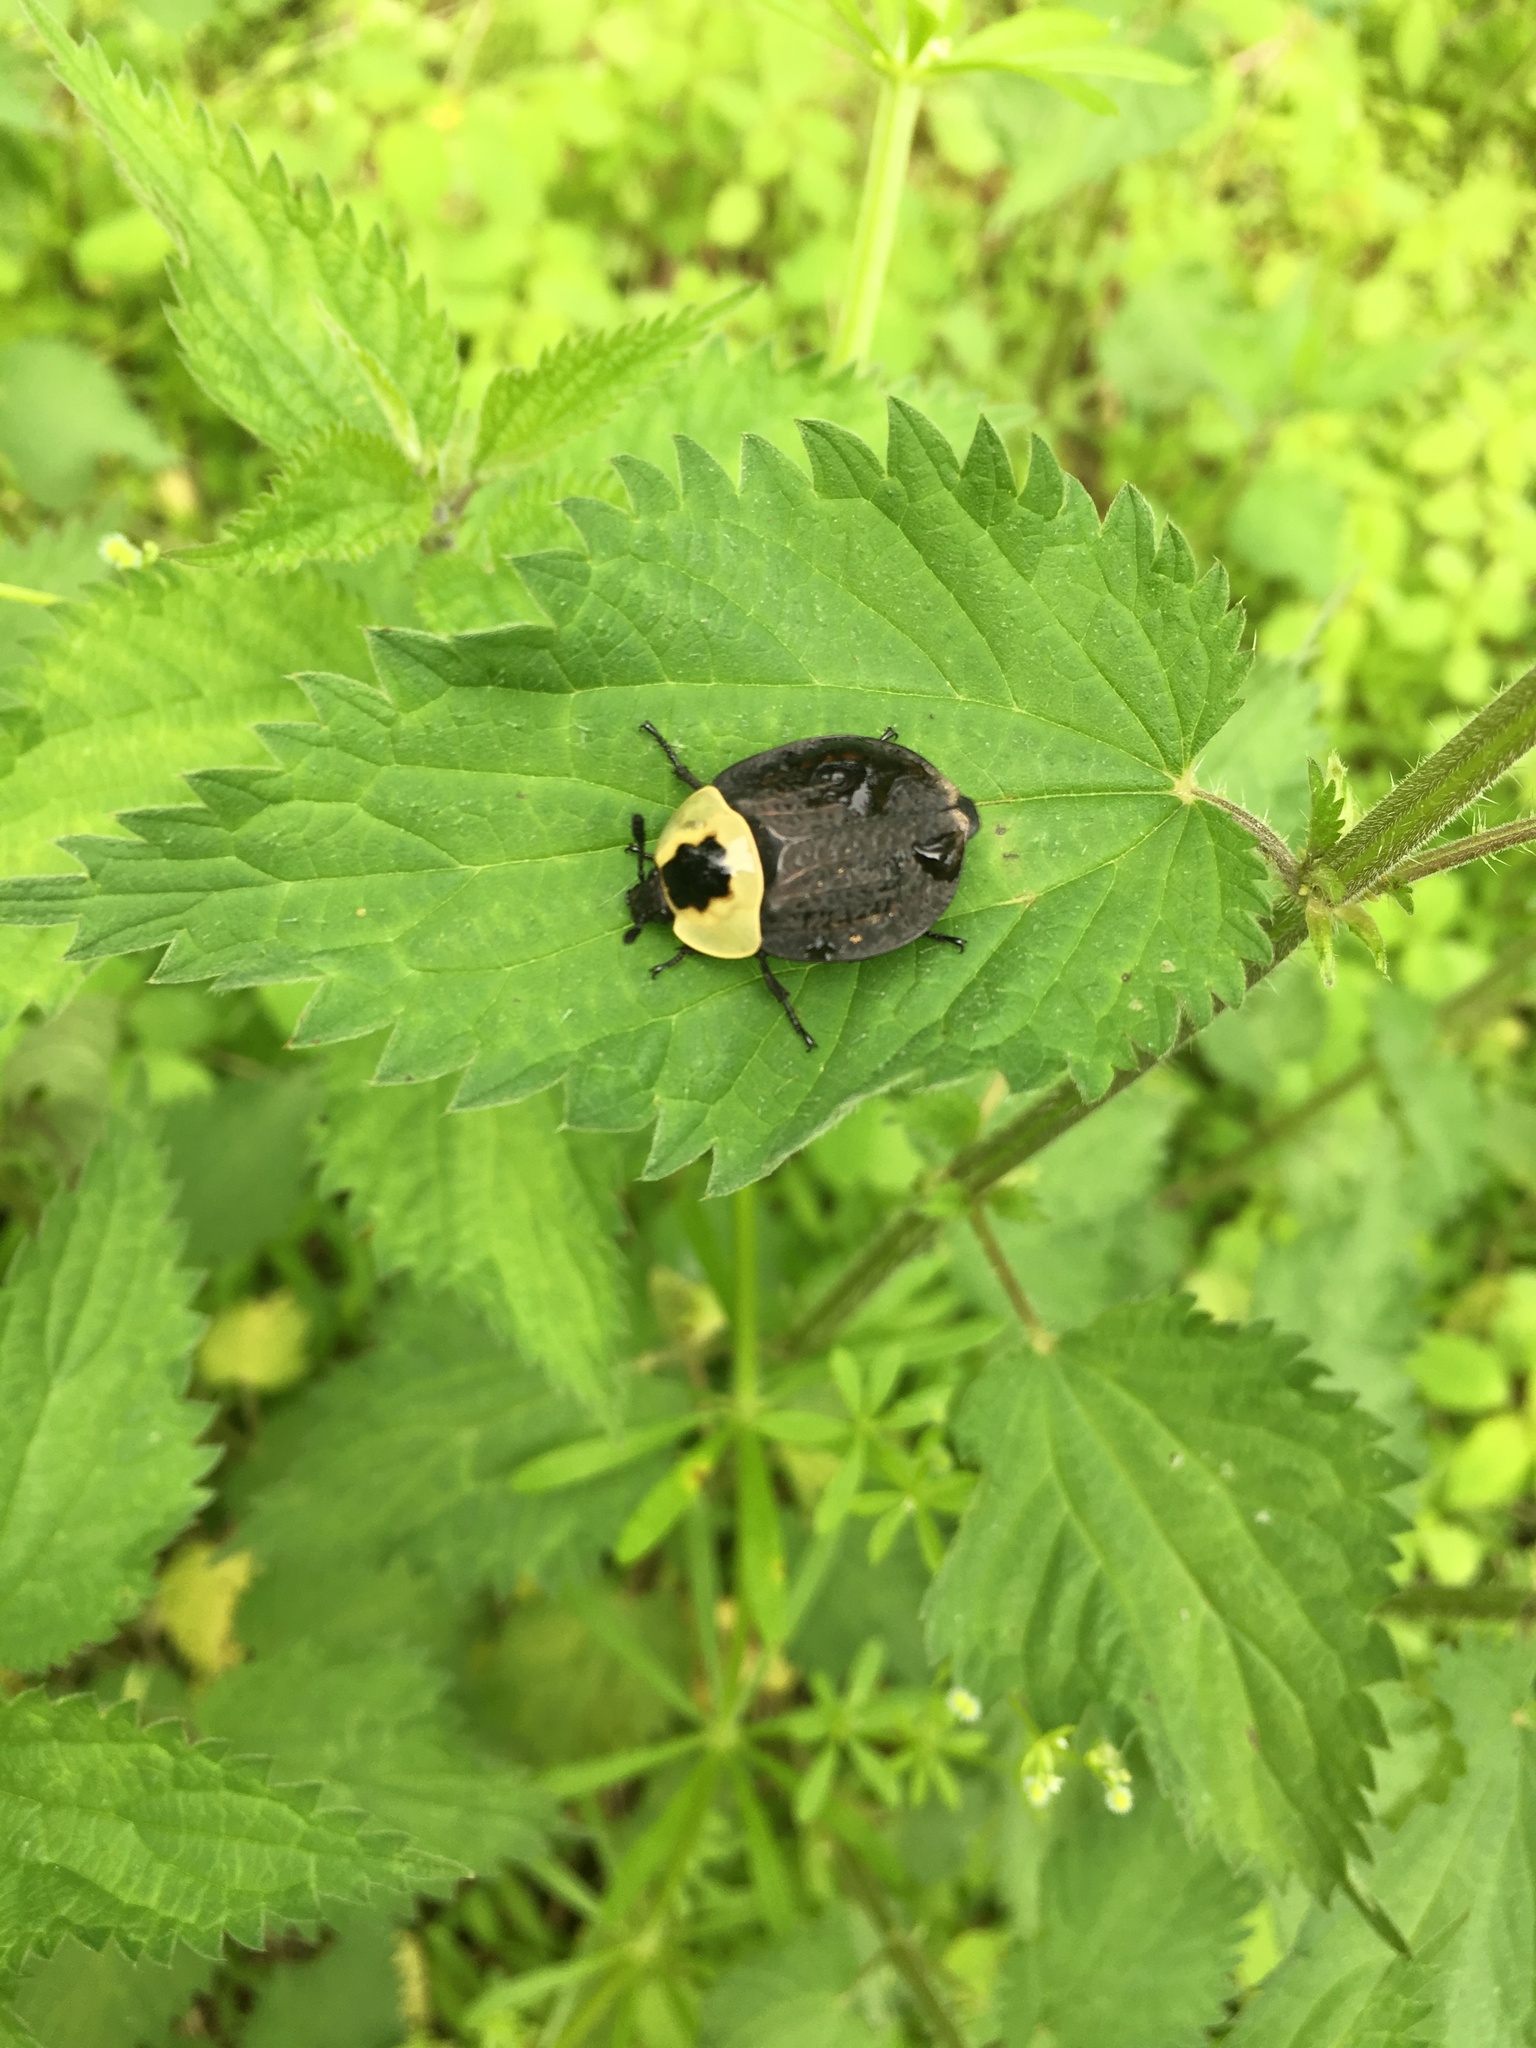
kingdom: Animalia
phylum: Arthropoda
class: Insecta
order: Coleoptera
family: Staphylinidae
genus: Necrophila
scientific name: Necrophila americana
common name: American carrion beetle
